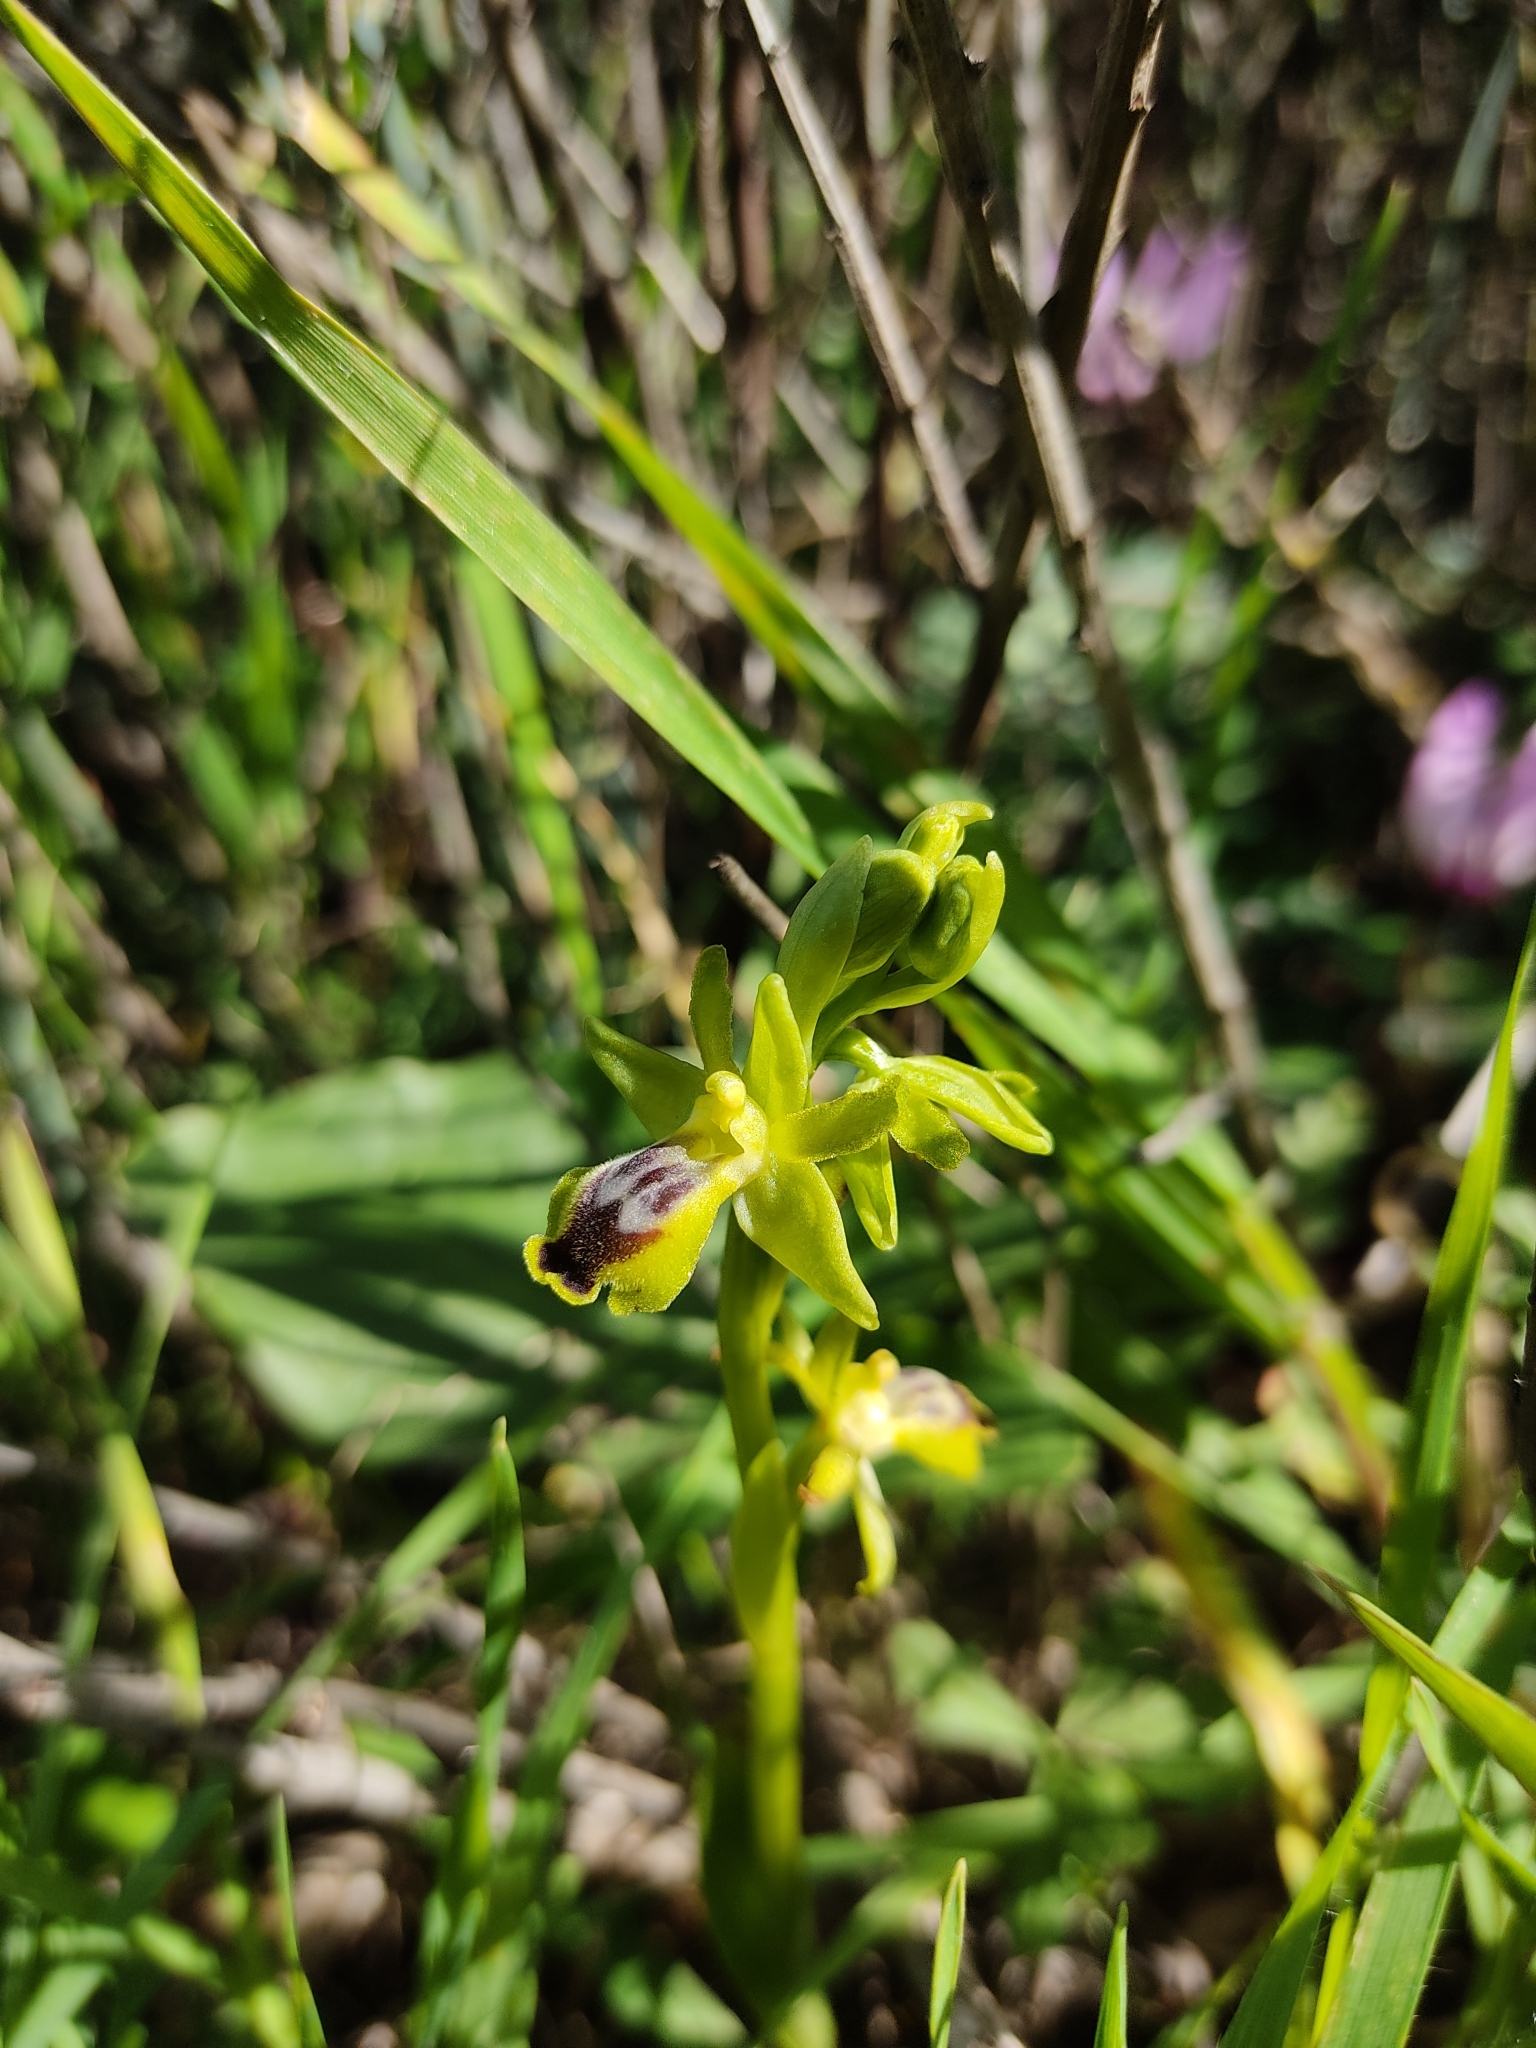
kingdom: Plantae
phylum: Tracheophyta
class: Liliopsida
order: Asparagales
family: Orchidaceae
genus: Ophrys
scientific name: Ophrys lutea
